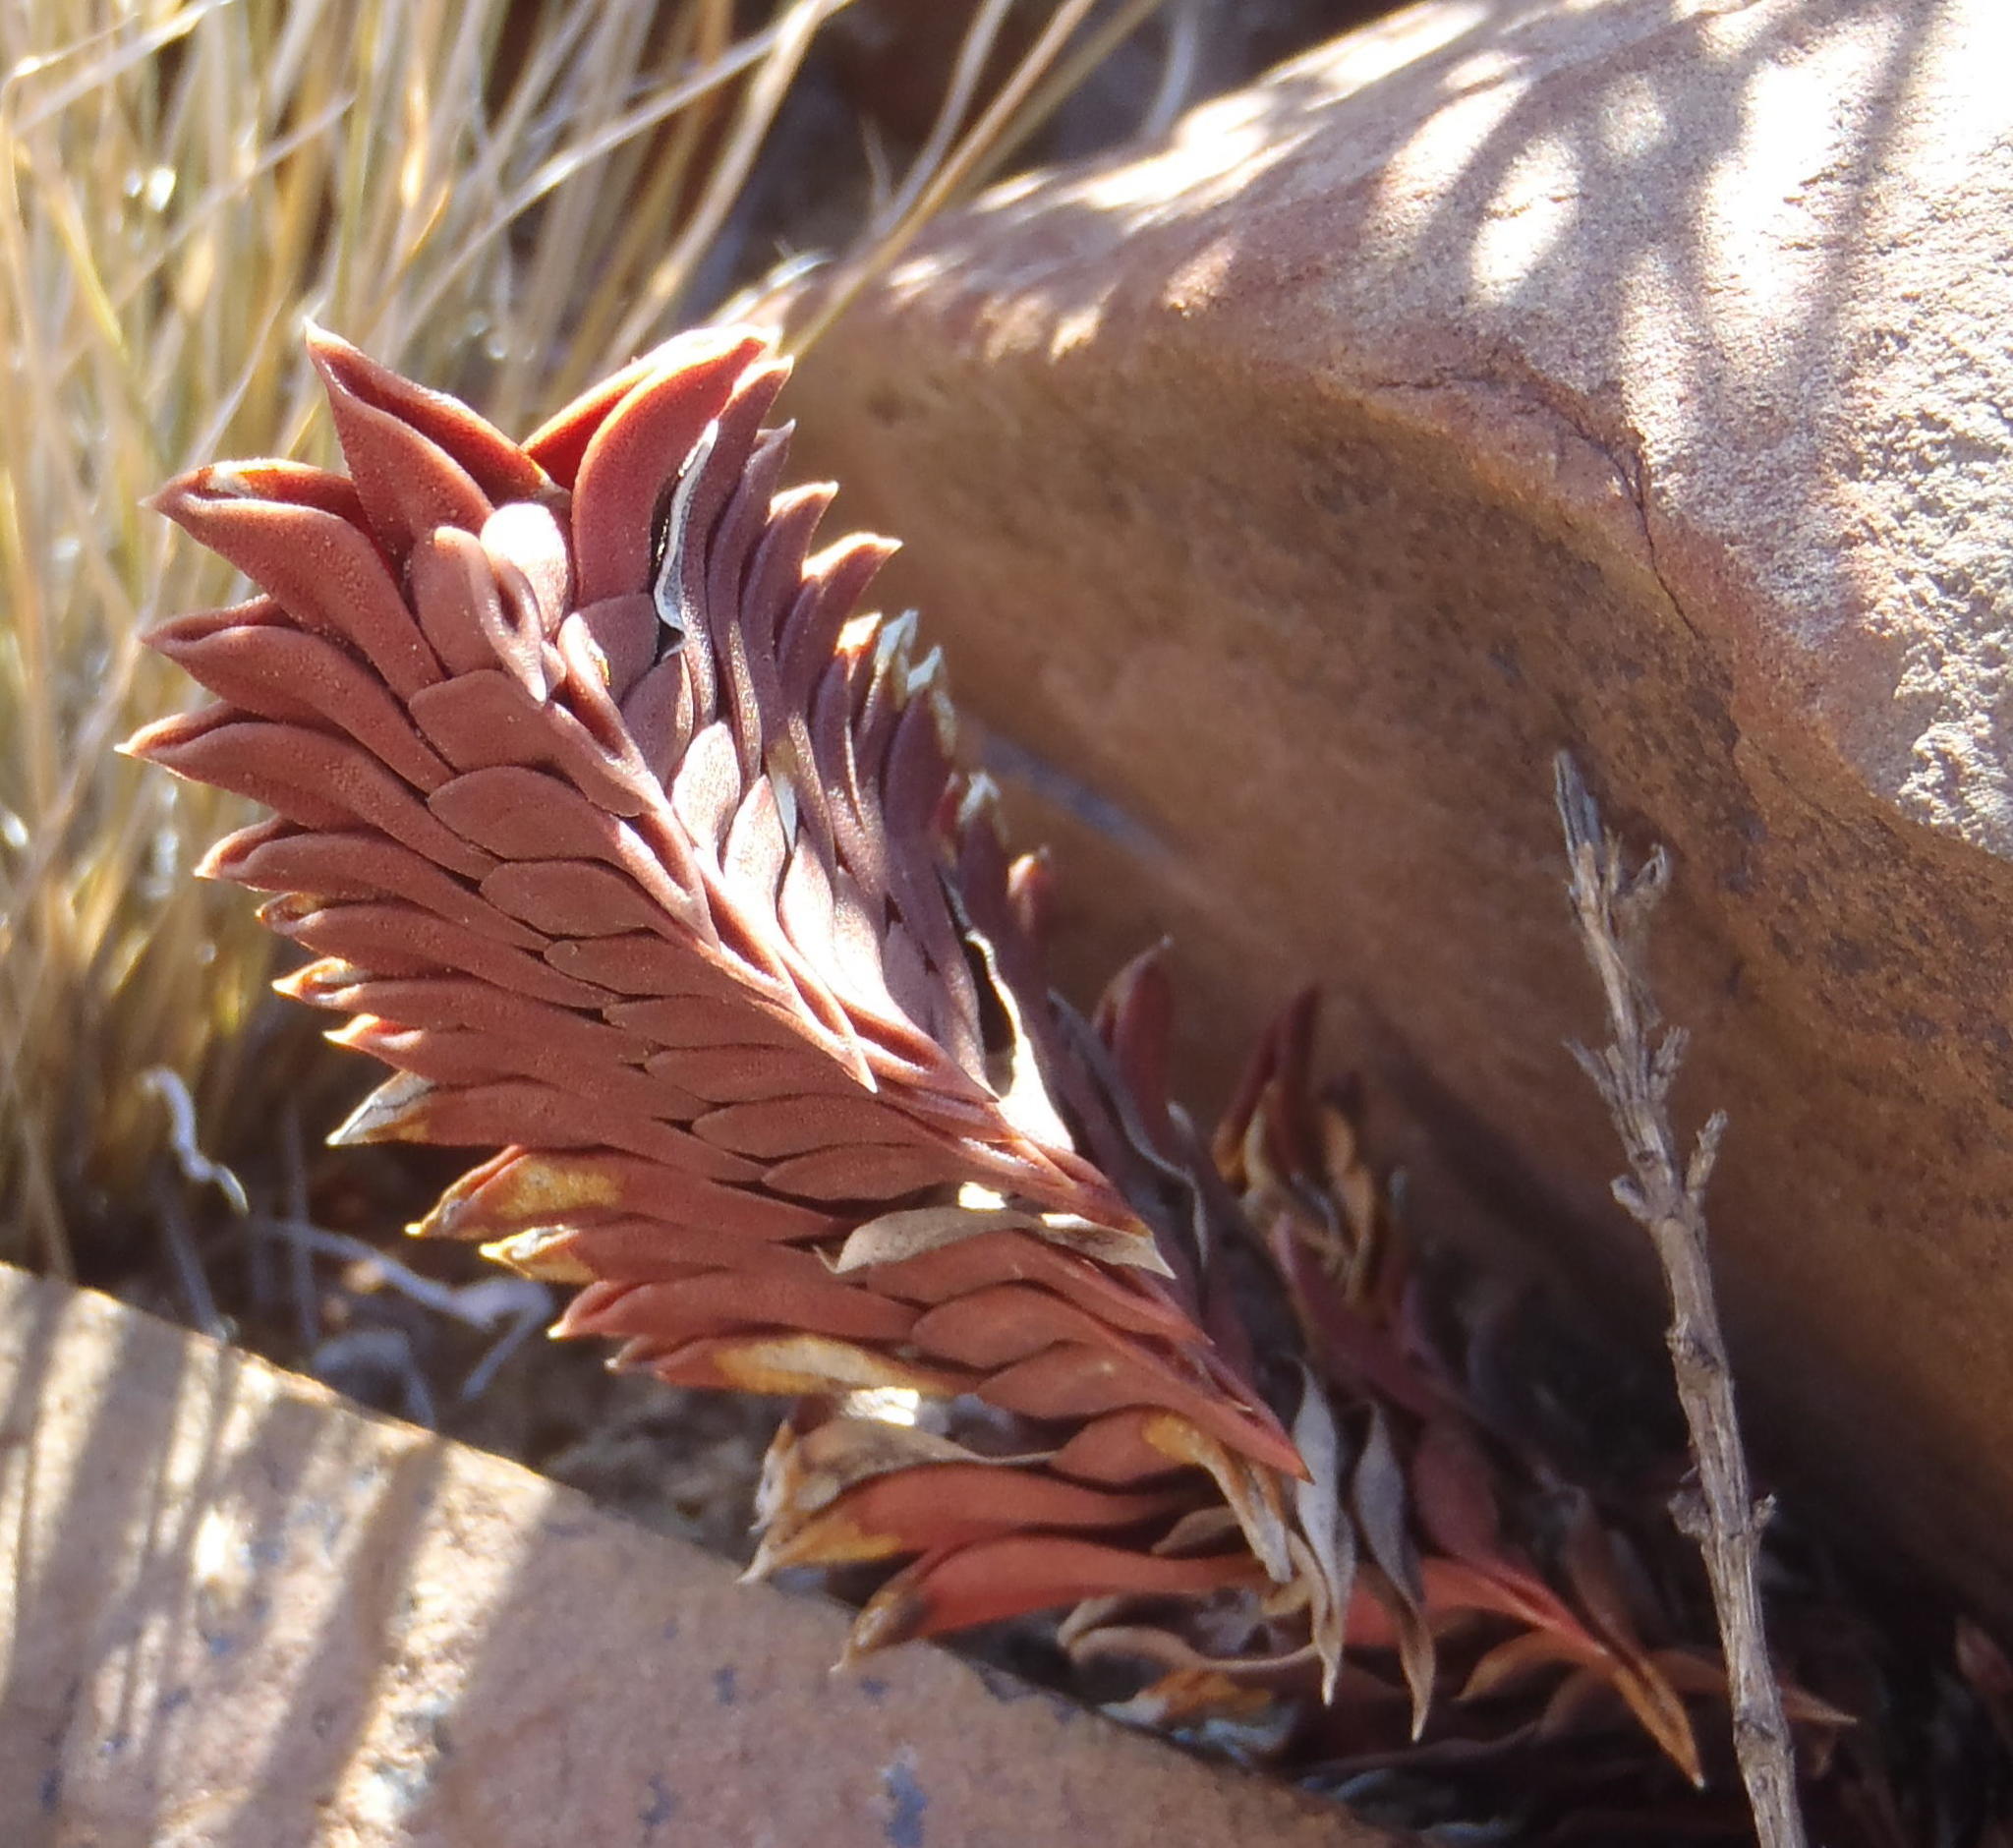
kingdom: Plantae
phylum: Tracheophyta
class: Liliopsida
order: Asparagales
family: Asphodelaceae
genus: Haworthiopsis
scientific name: Haworthiopsis viscosa
